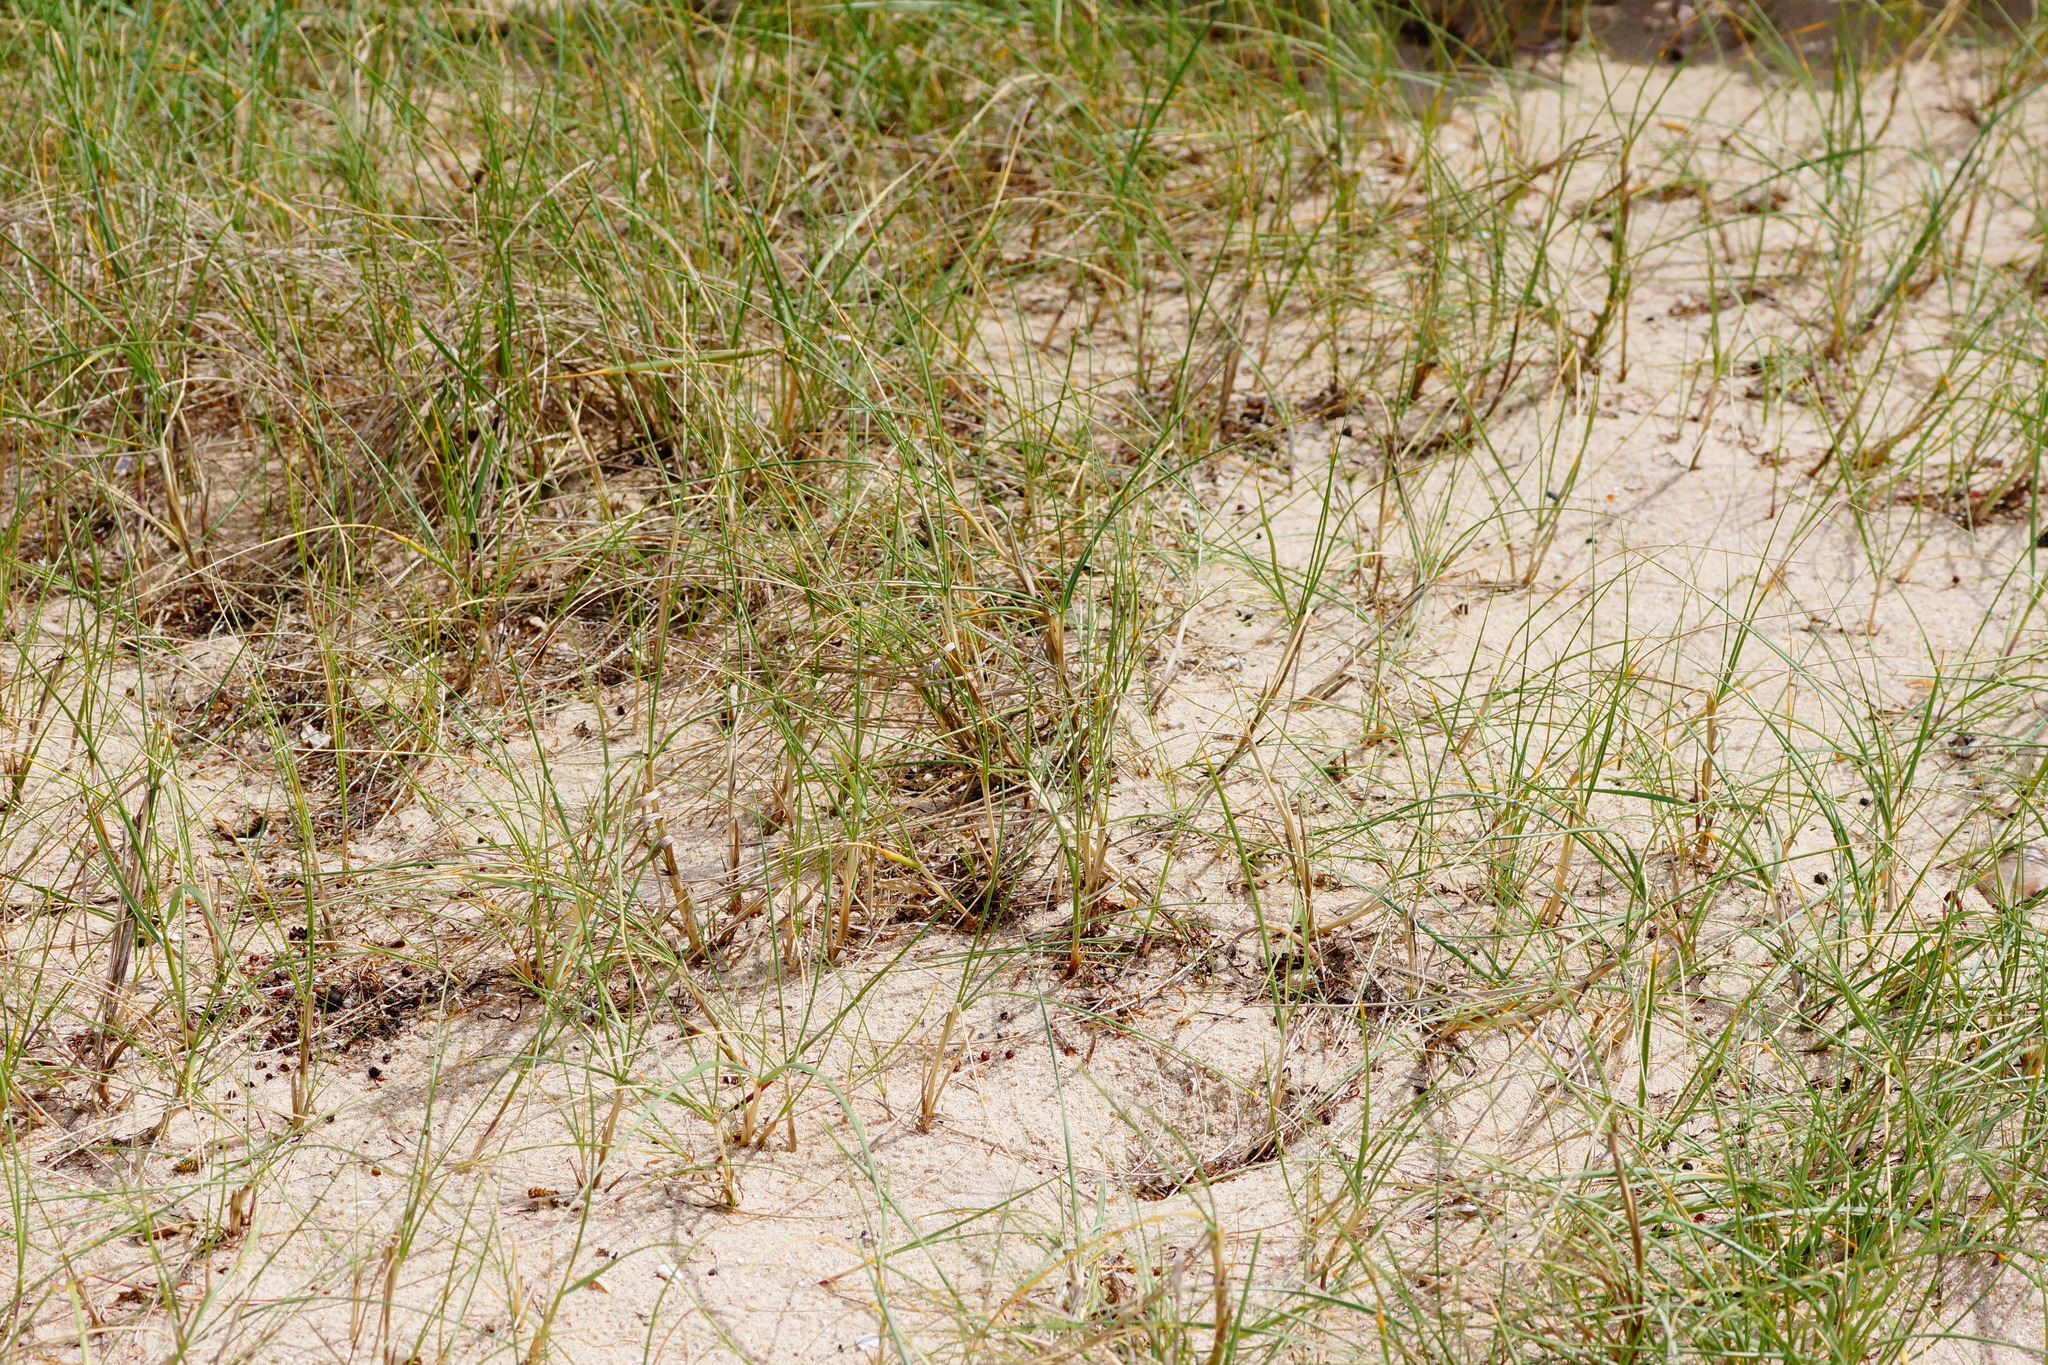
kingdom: Plantae
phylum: Tracheophyta
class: Liliopsida
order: Poales
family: Poaceae
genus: Distichlis
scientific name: Distichlis distichophylla
